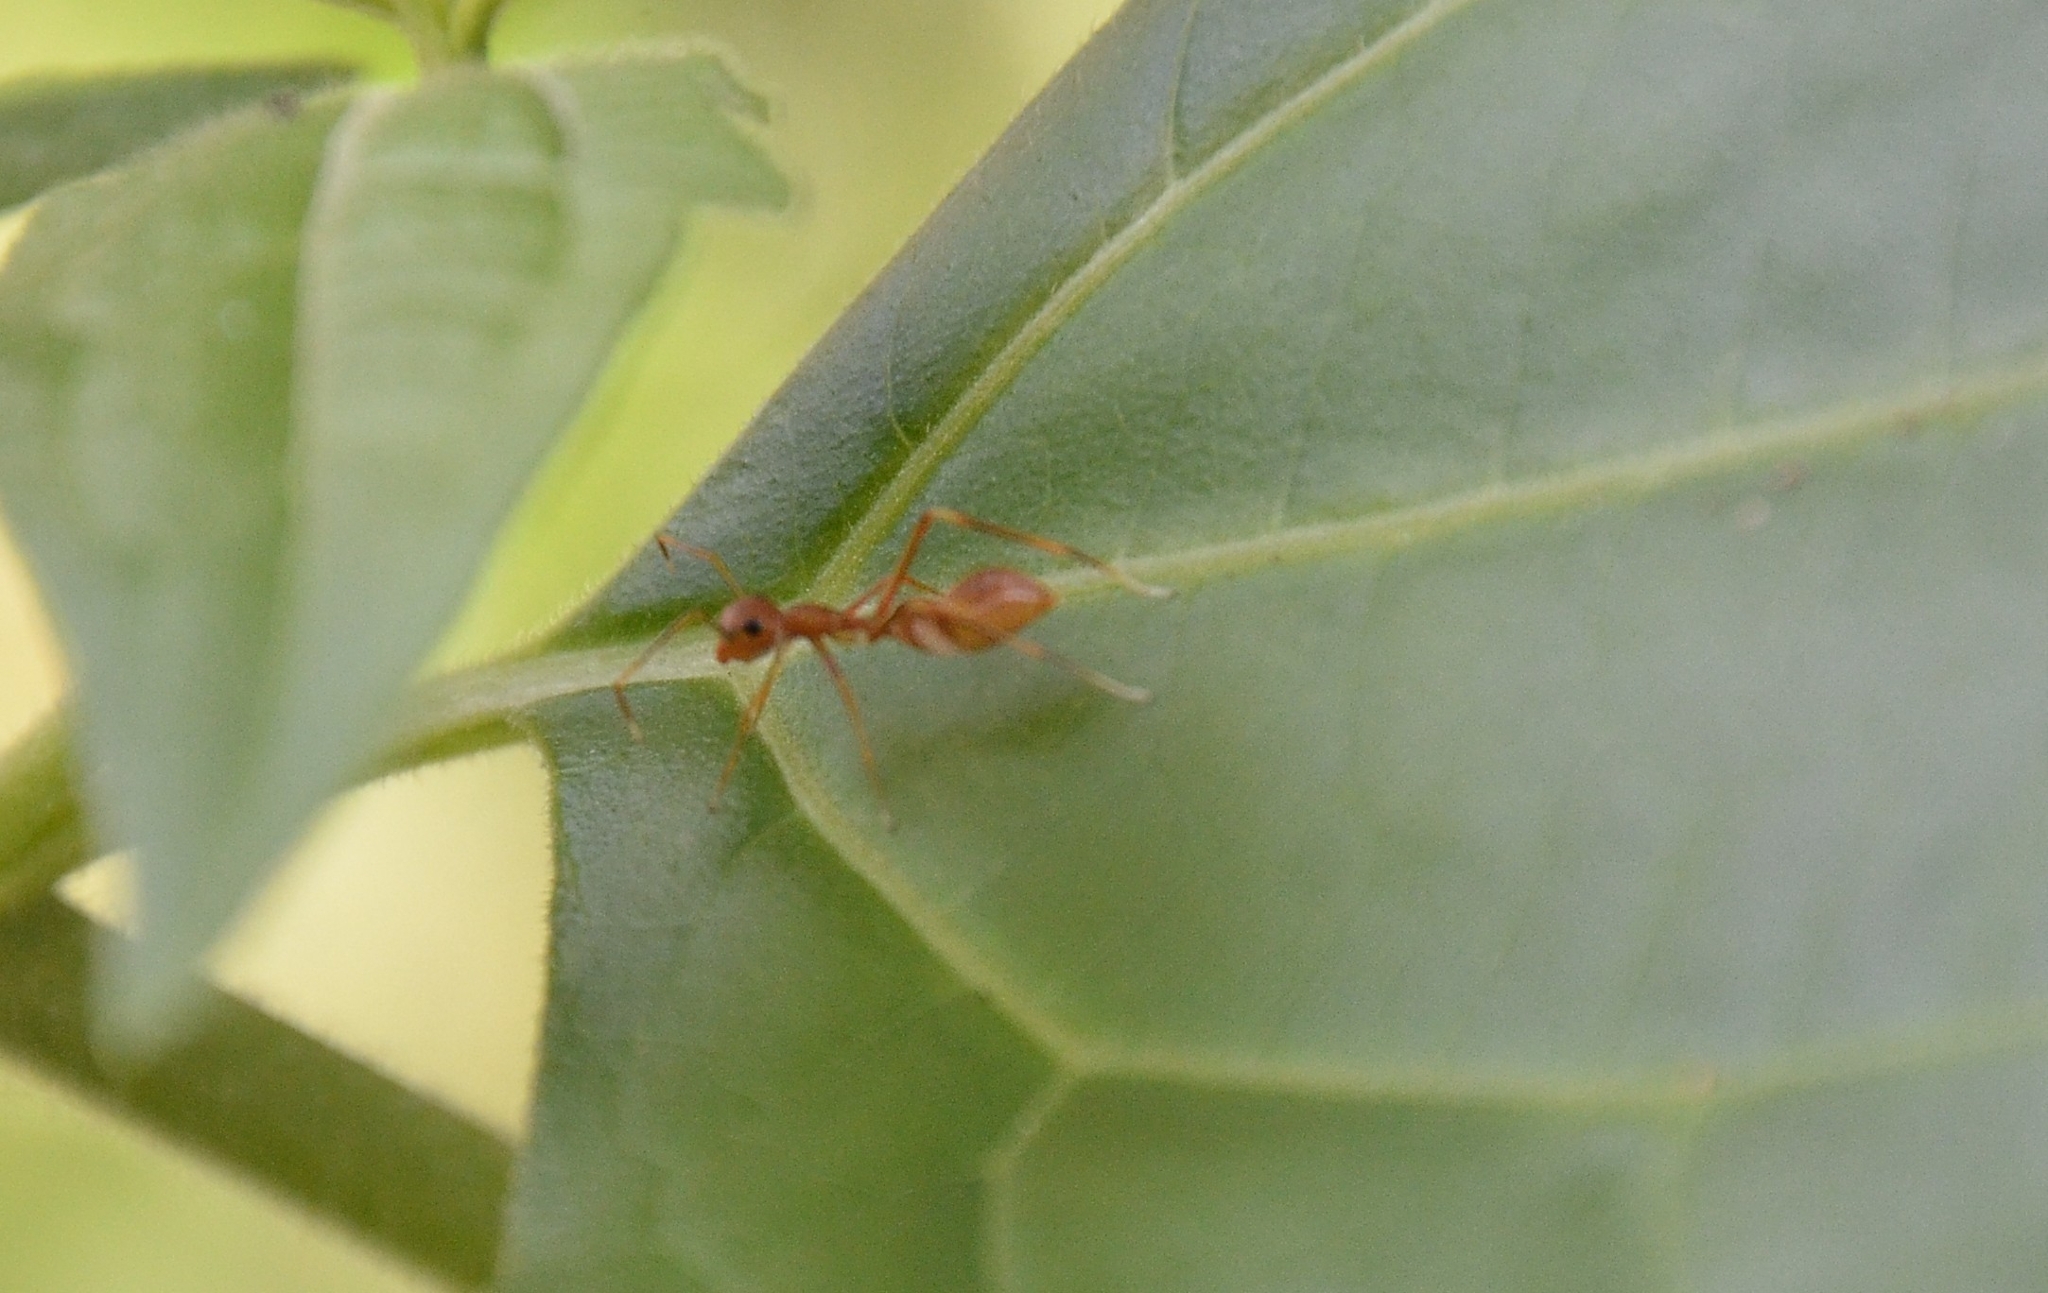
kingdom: Animalia
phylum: Arthropoda
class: Arachnida
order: Araneae
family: Salticidae
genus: Myrmaplata
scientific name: Myrmaplata plataleoides
